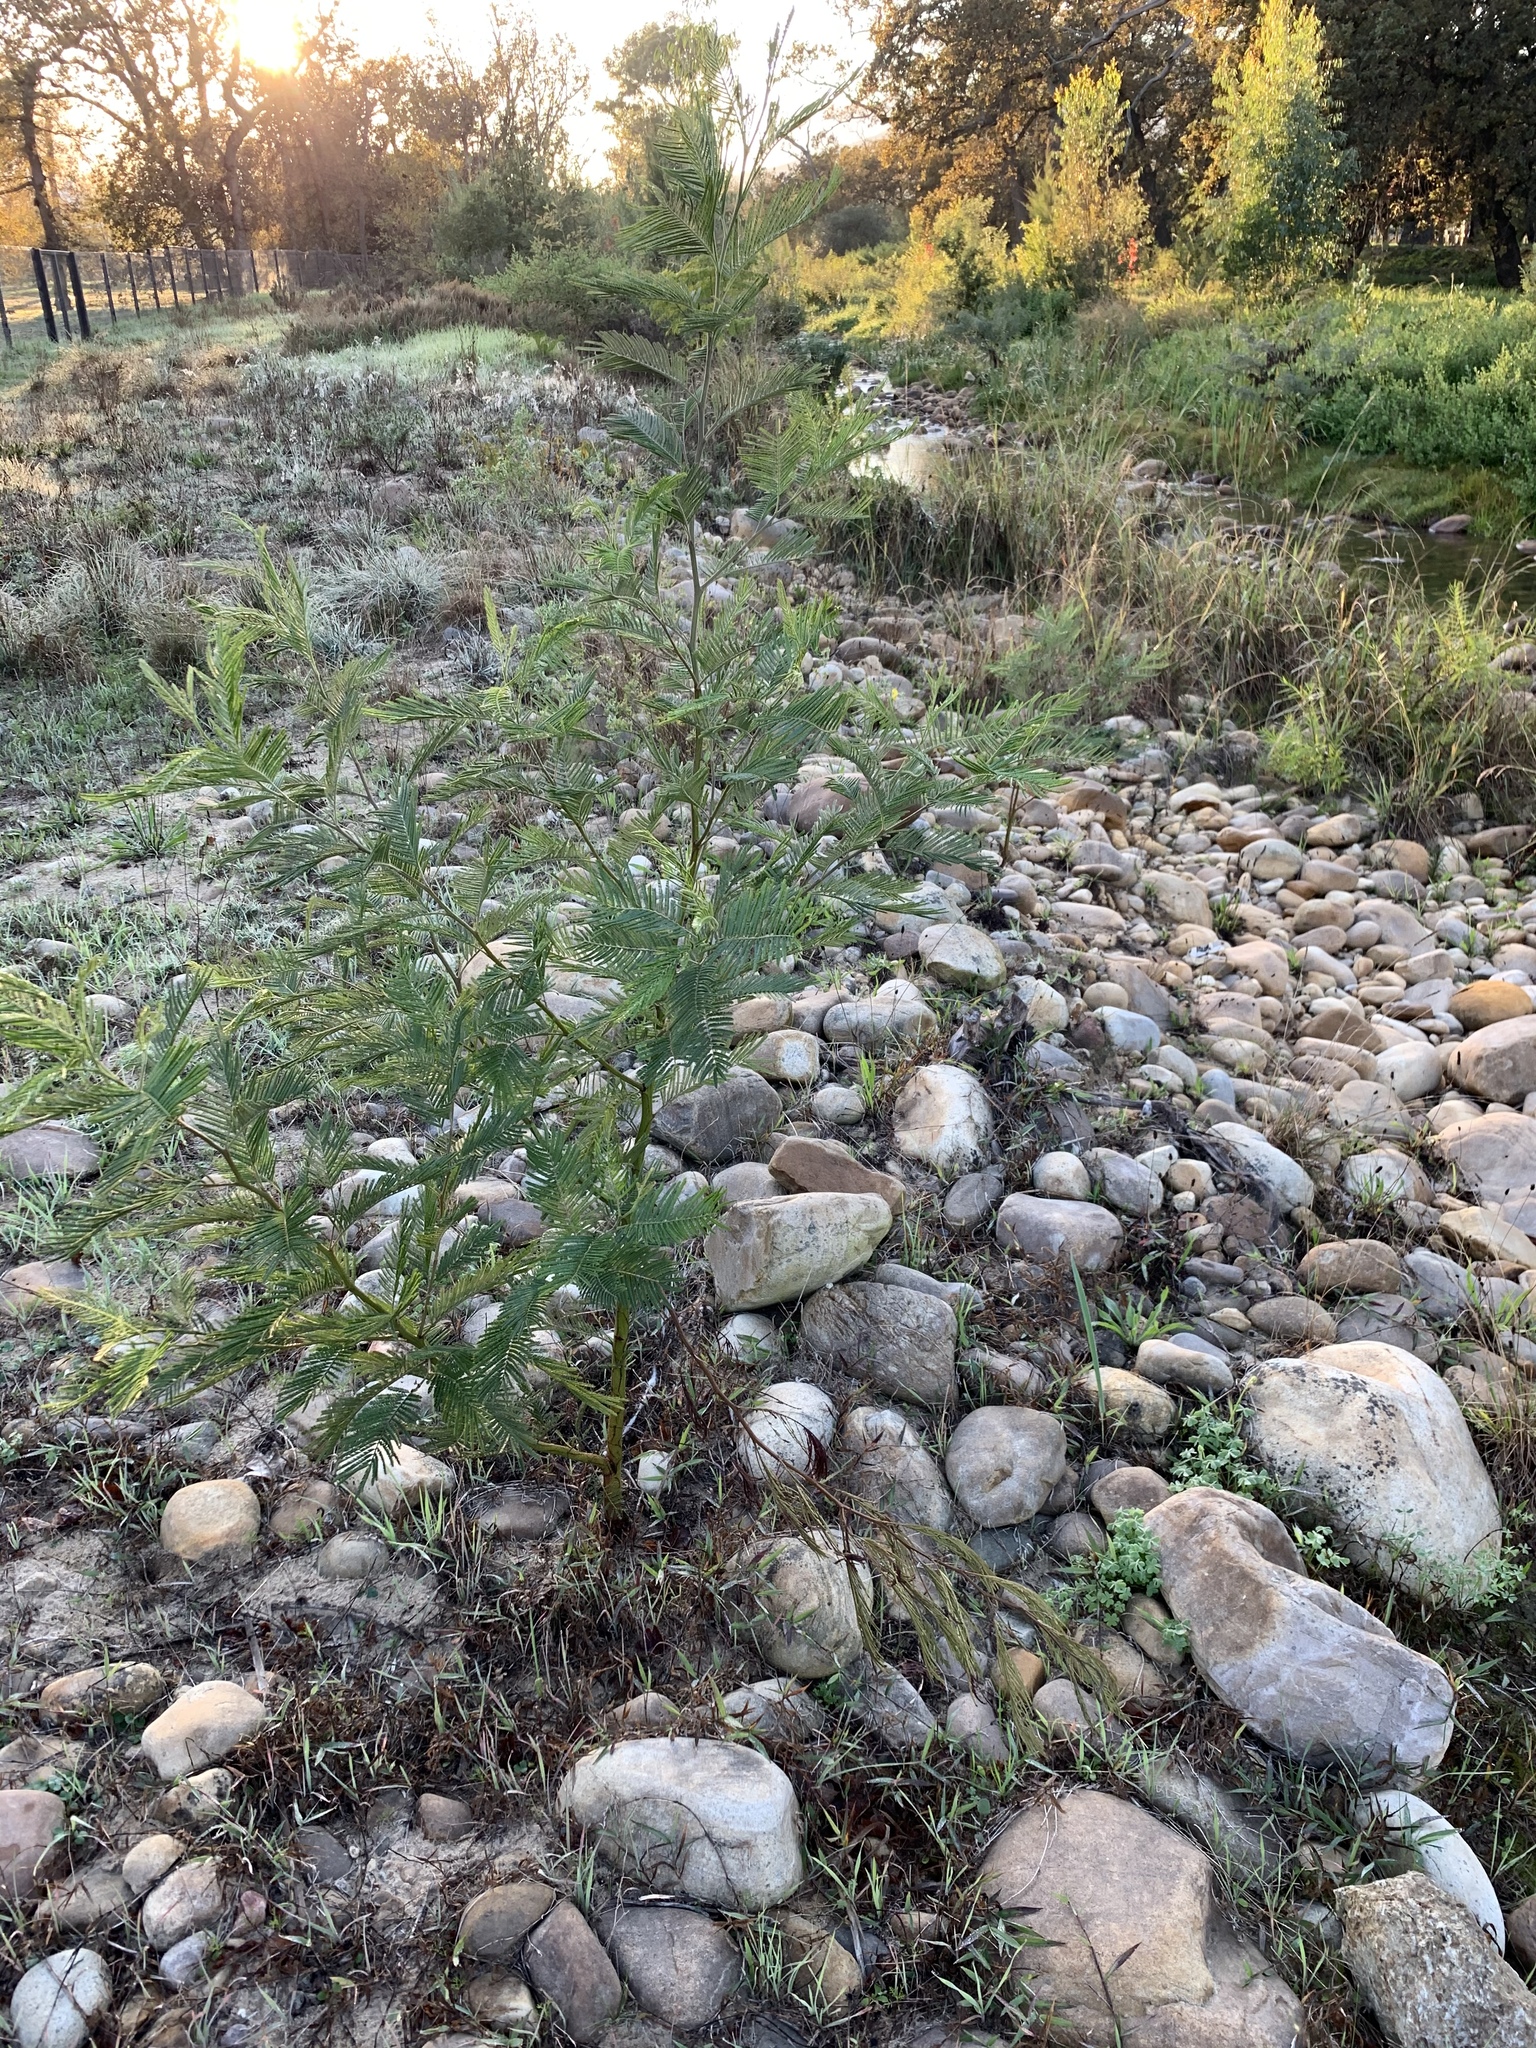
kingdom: Plantae
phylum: Tracheophyta
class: Magnoliopsida
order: Fabales
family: Fabaceae
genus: Acacia
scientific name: Acacia mearnsii
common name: Black wattle
